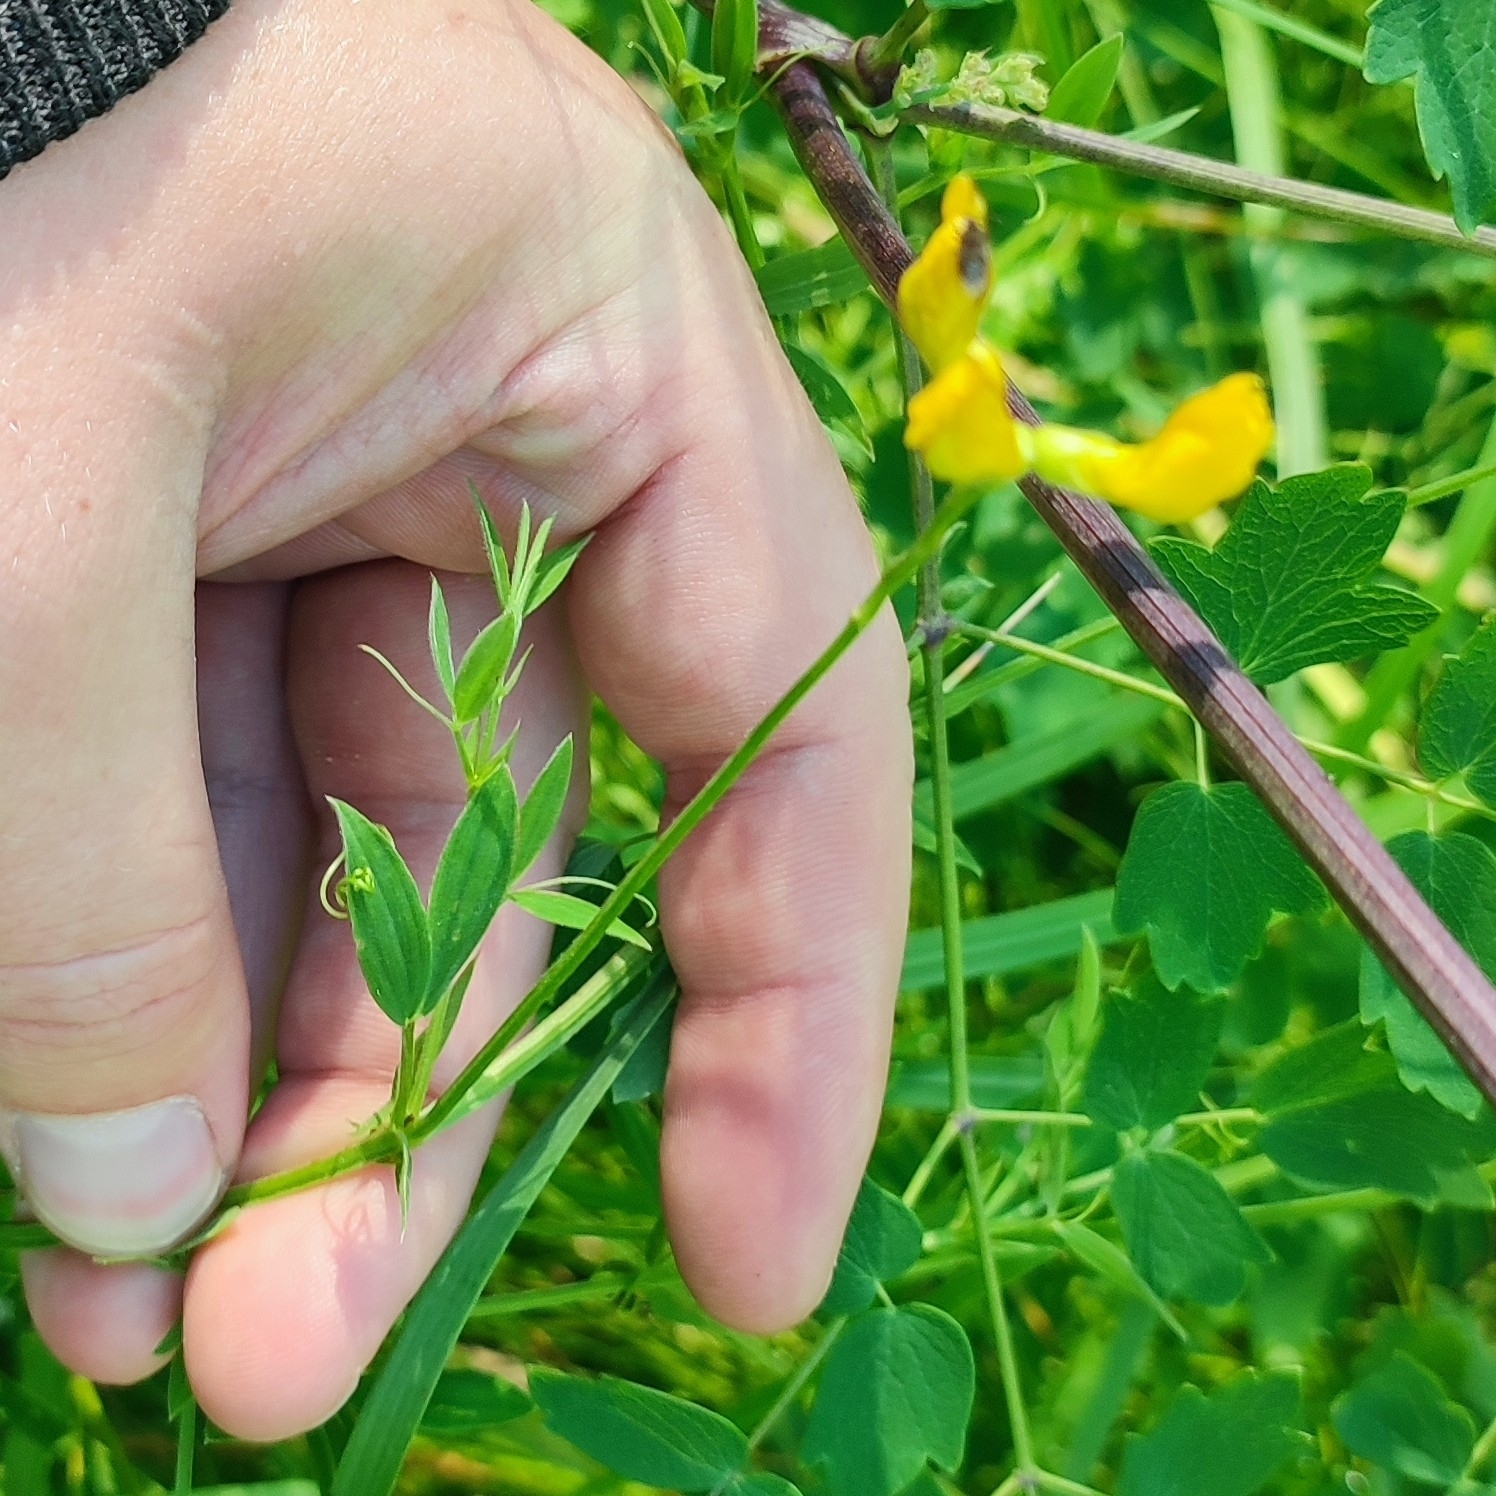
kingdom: Plantae
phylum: Tracheophyta
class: Magnoliopsida
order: Fabales
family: Fabaceae
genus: Lathyrus
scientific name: Lathyrus pratensis
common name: Meadow vetchling
